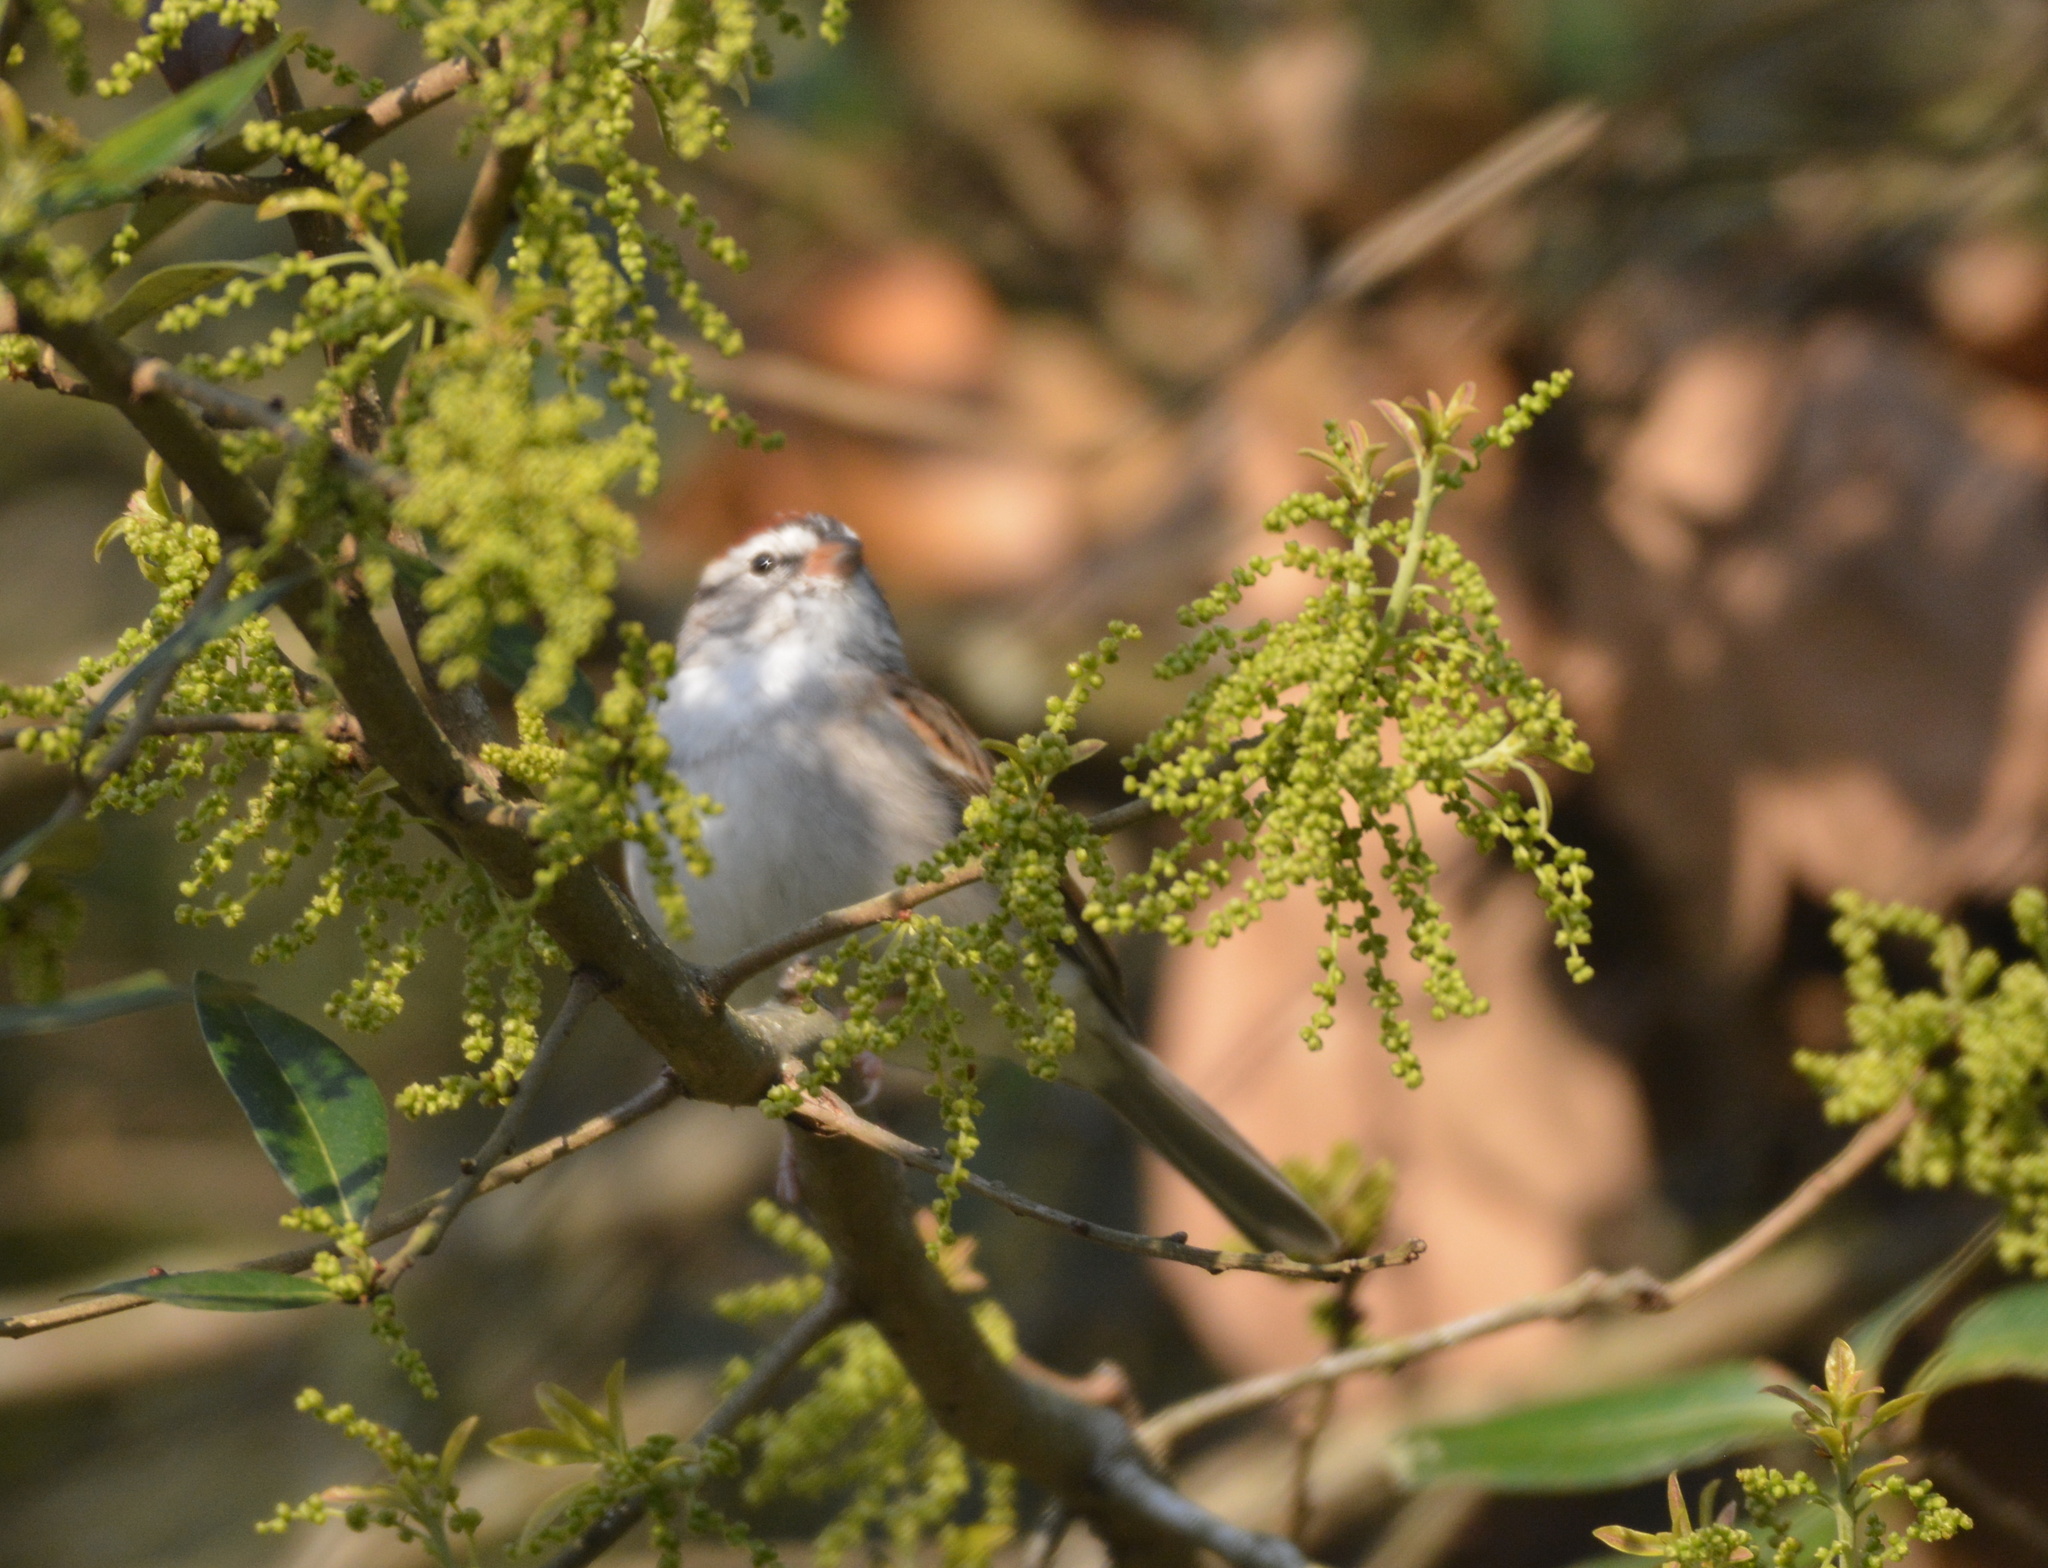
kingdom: Animalia
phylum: Chordata
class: Aves
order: Passeriformes
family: Passerellidae
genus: Spizella
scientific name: Spizella passerina
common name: Chipping sparrow
